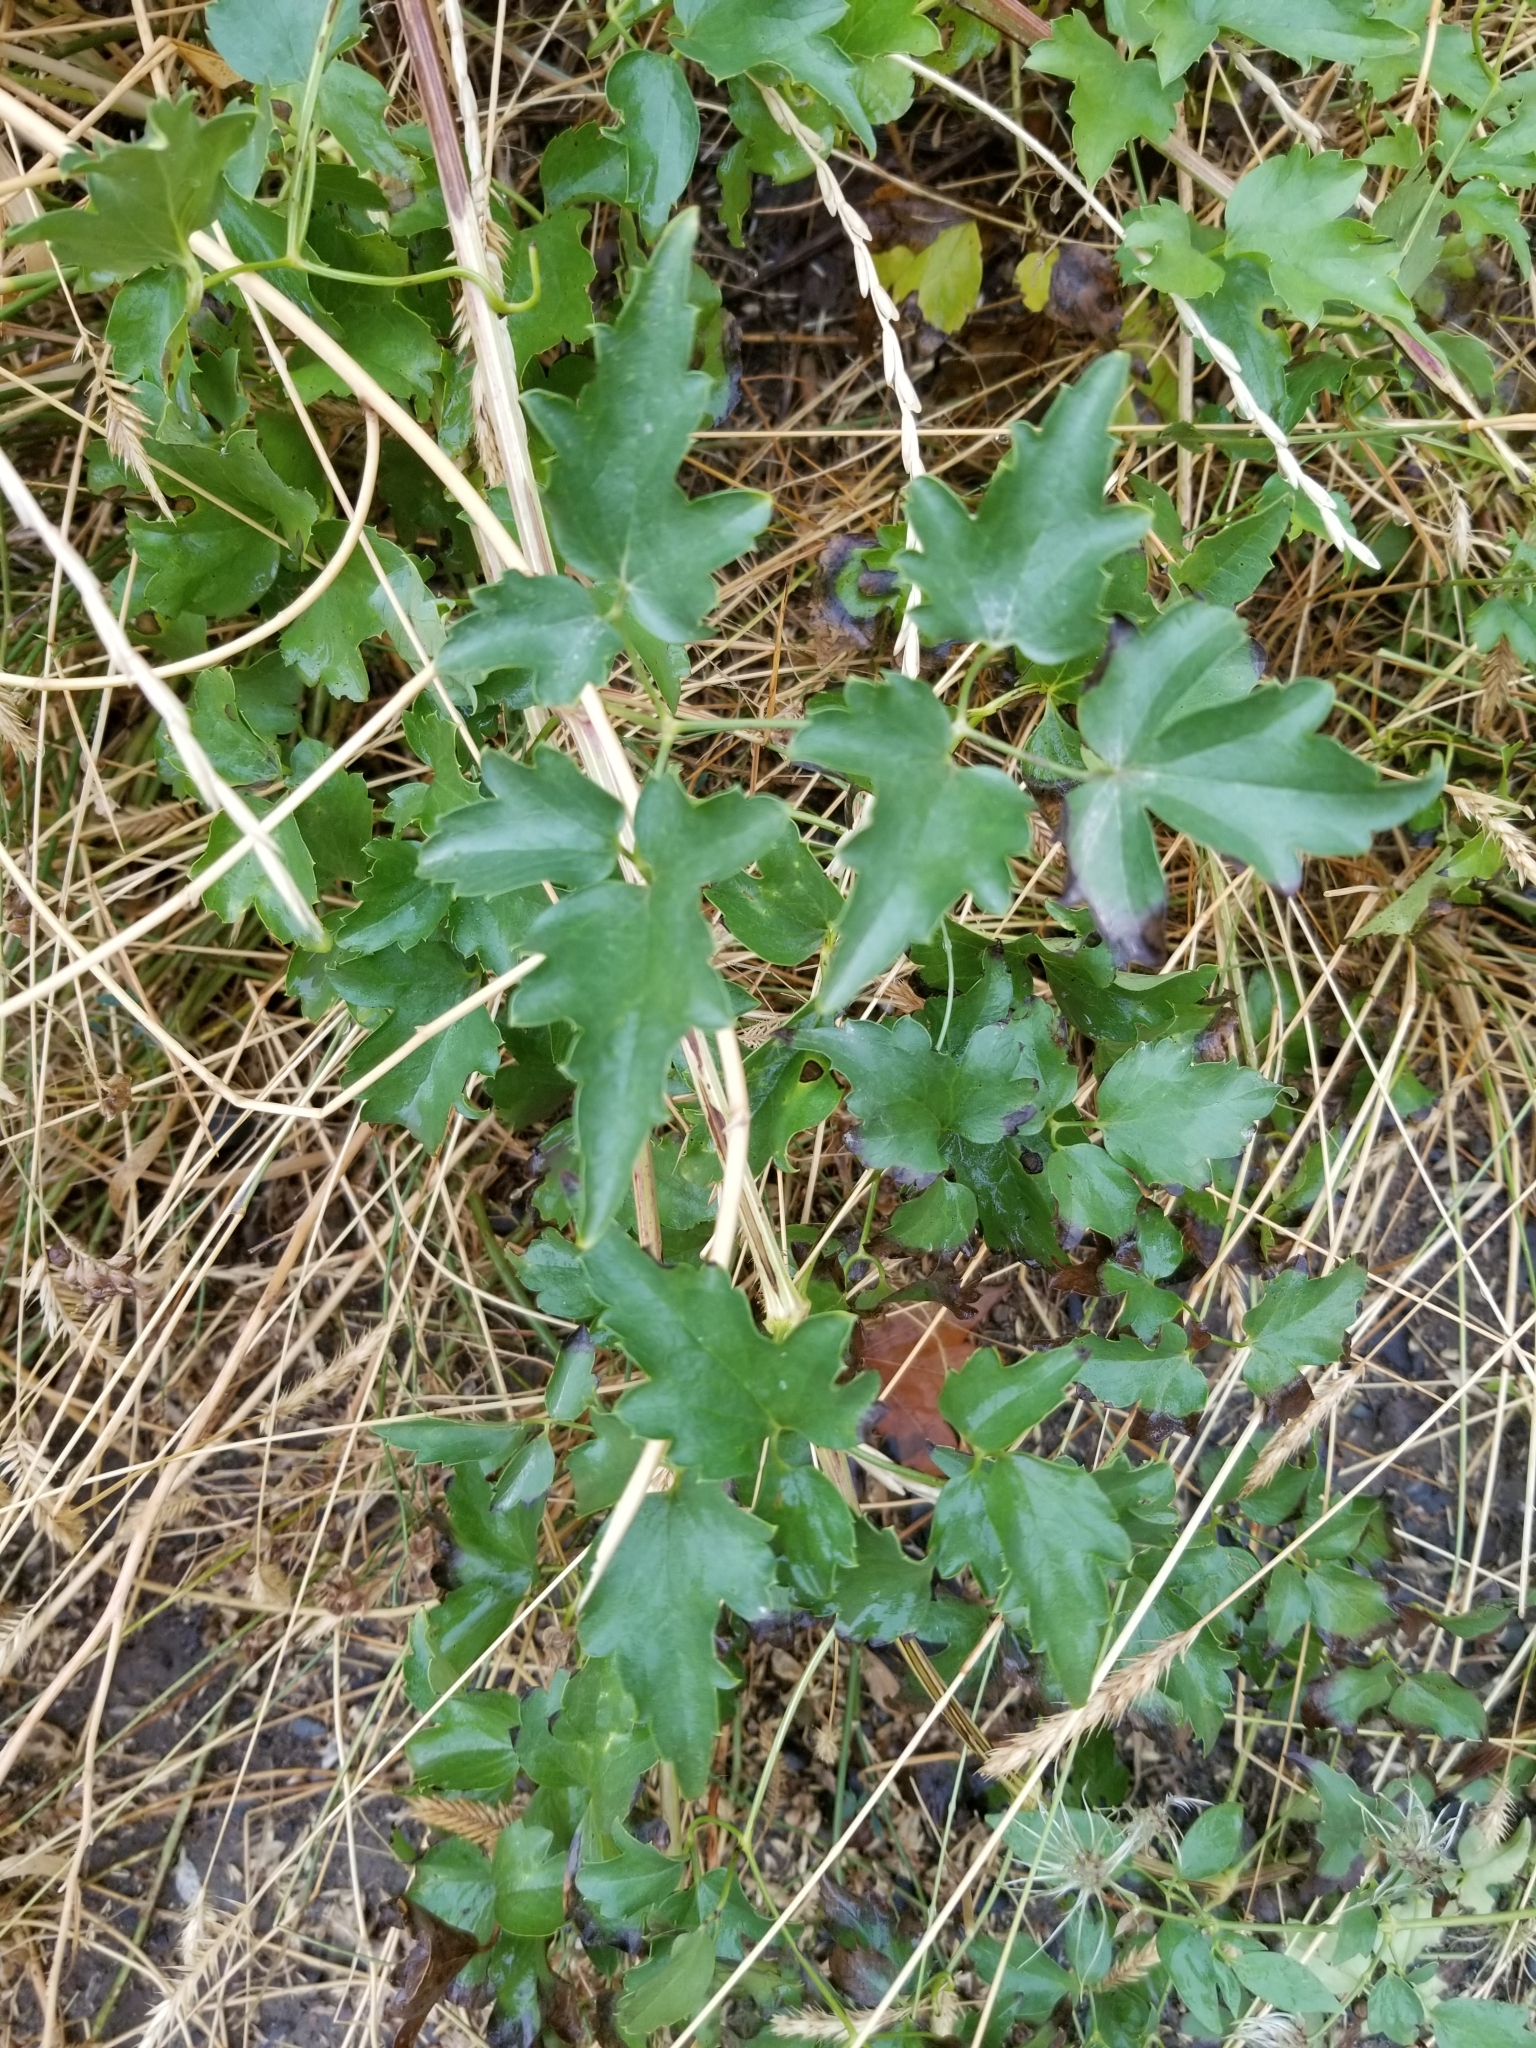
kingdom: Plantae
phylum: Tracheophyta
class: Magnoliopsida
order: Ranunculales
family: Ranunculaceae
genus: Clematis
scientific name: Clematis ligusticifolia
